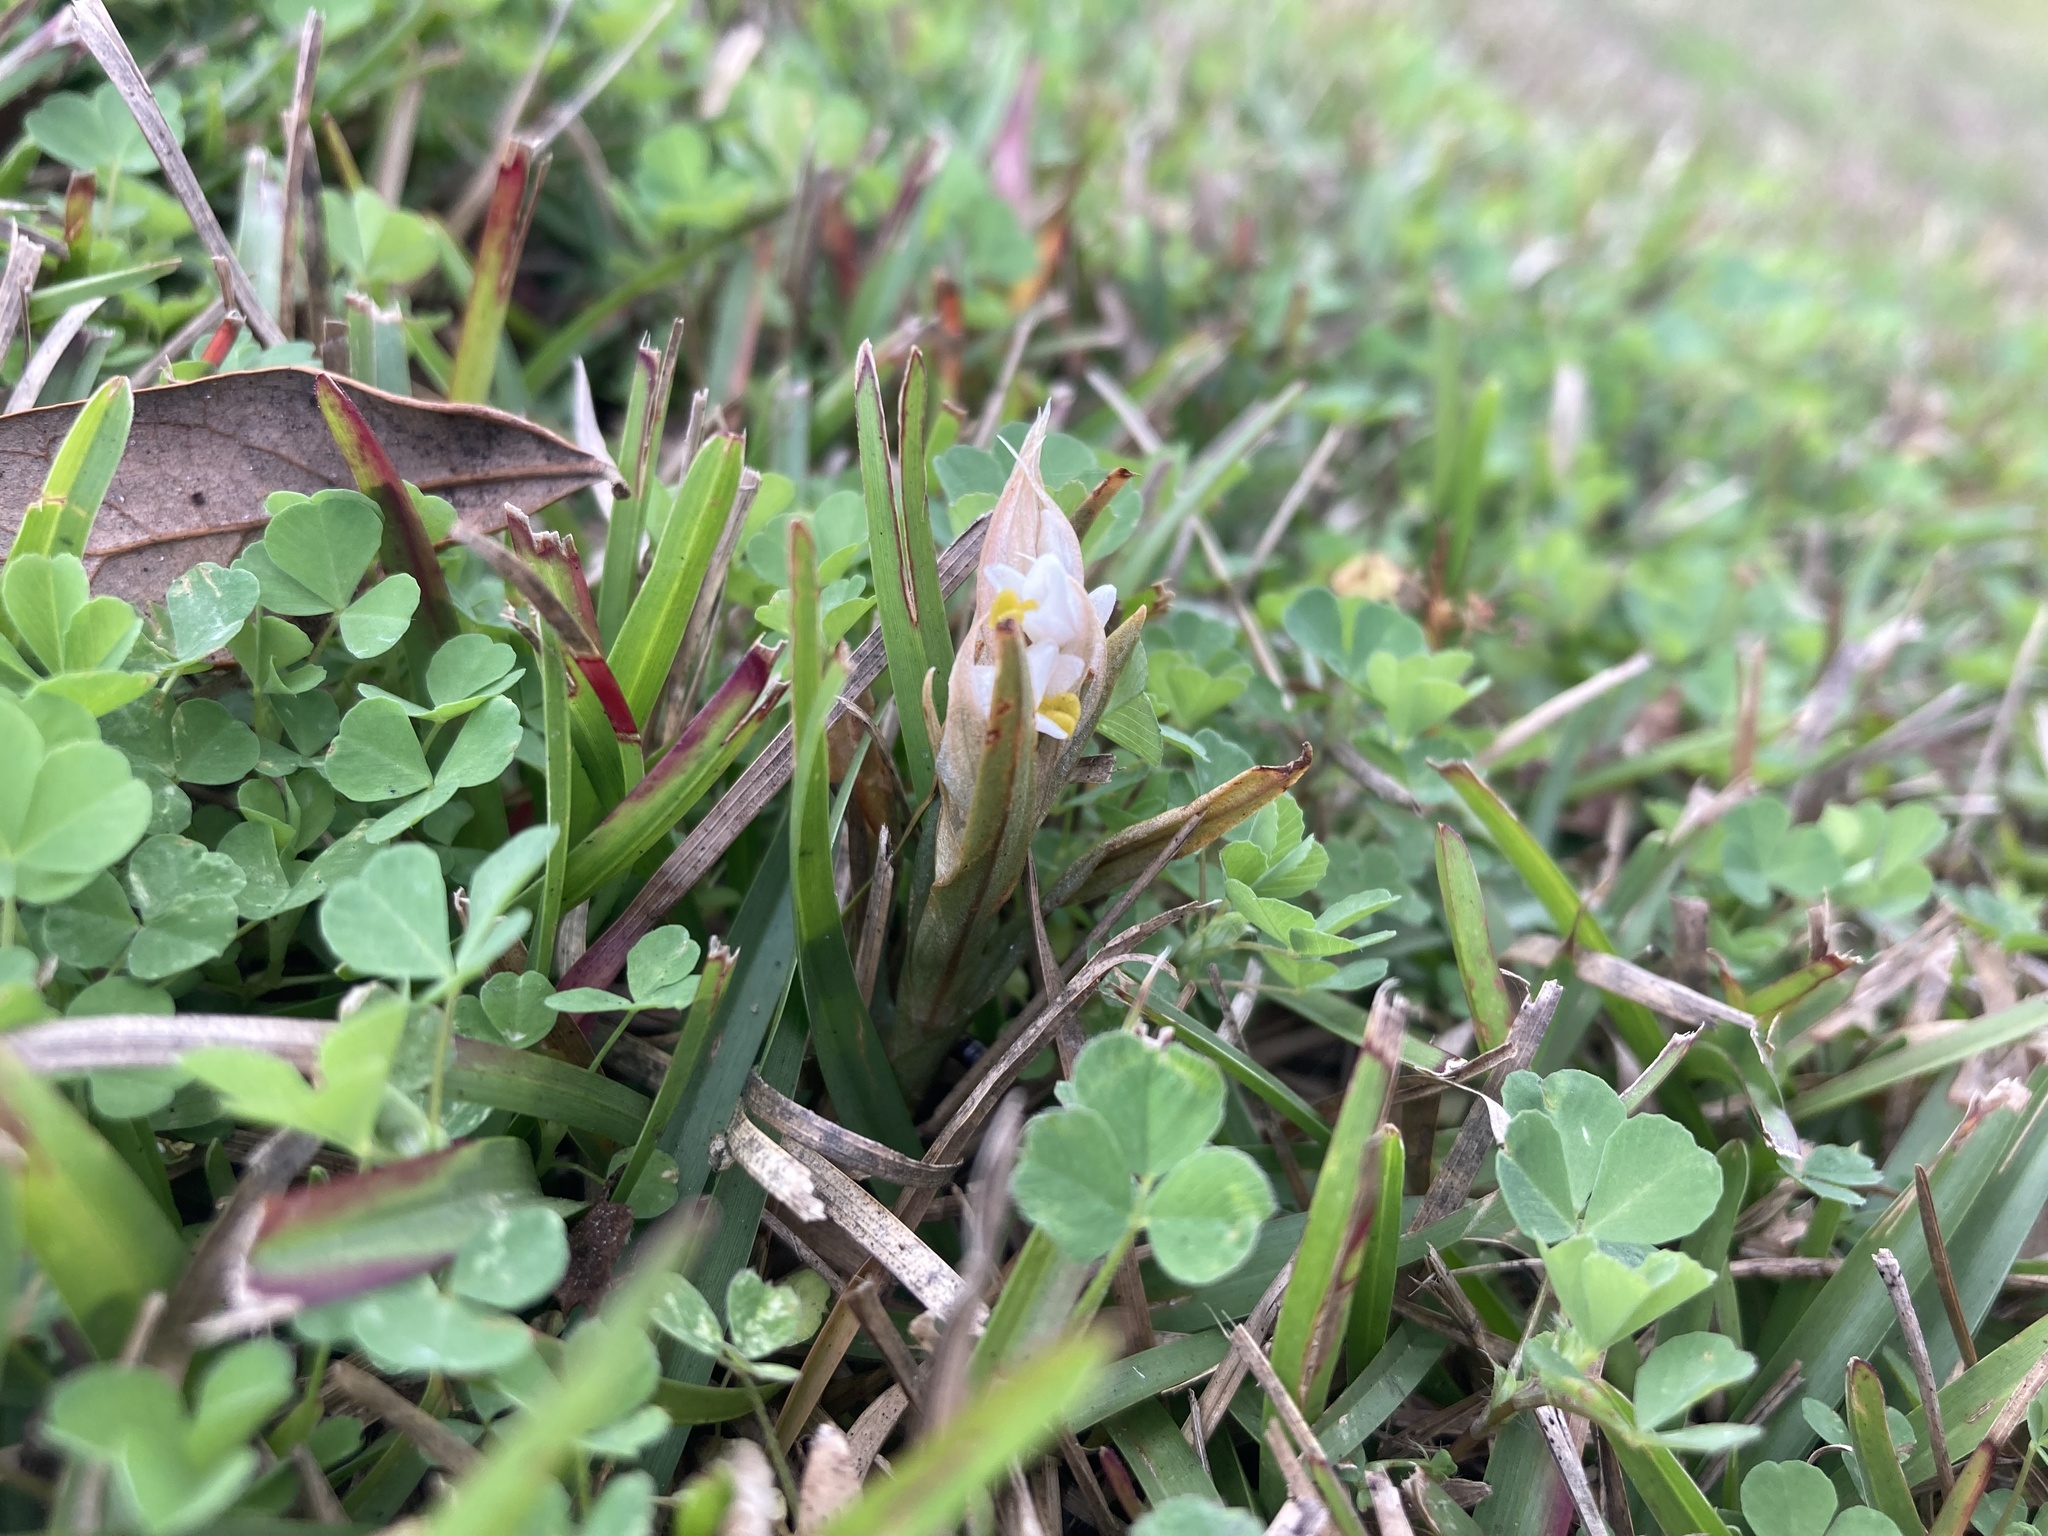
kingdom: Plantae
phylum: Tracheophyta
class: Liliopsida
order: Asparagales
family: Orchidaceae
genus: Zeuxine
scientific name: Zeuxine strateumatica
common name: Soldier's orchid
